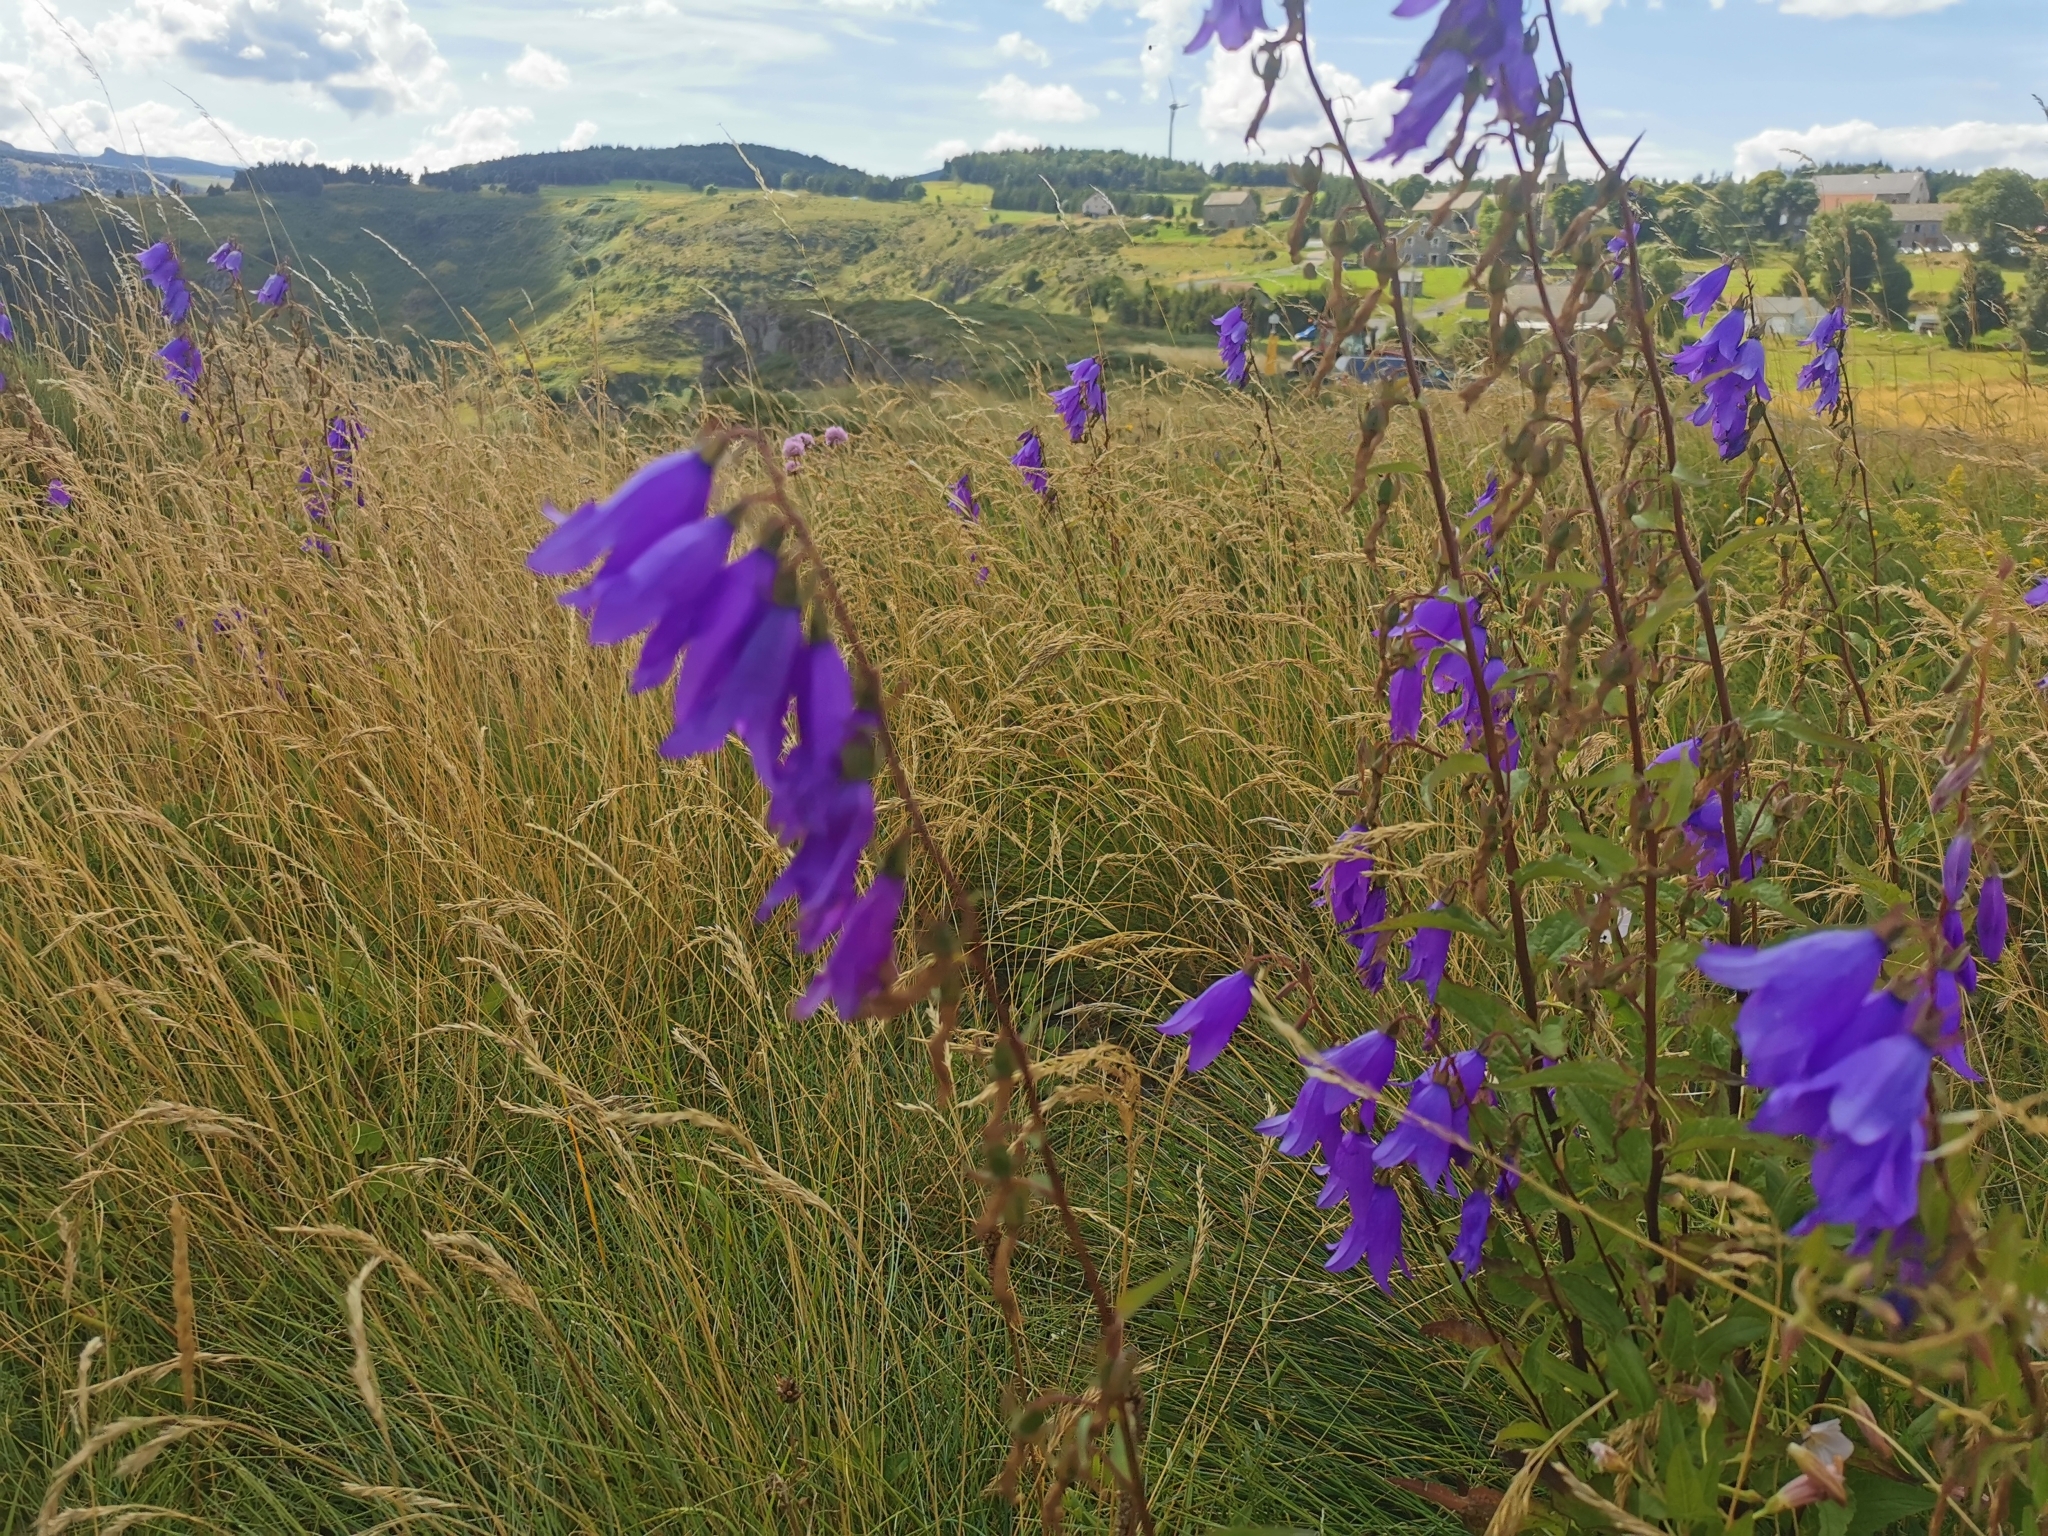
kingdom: Plantae
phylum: Tracheophyta
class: Magnoliopsida
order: Asterales
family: Campanulaceae
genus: Campanula
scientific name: Campanula rapunculoides
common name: Creeping bellflower
